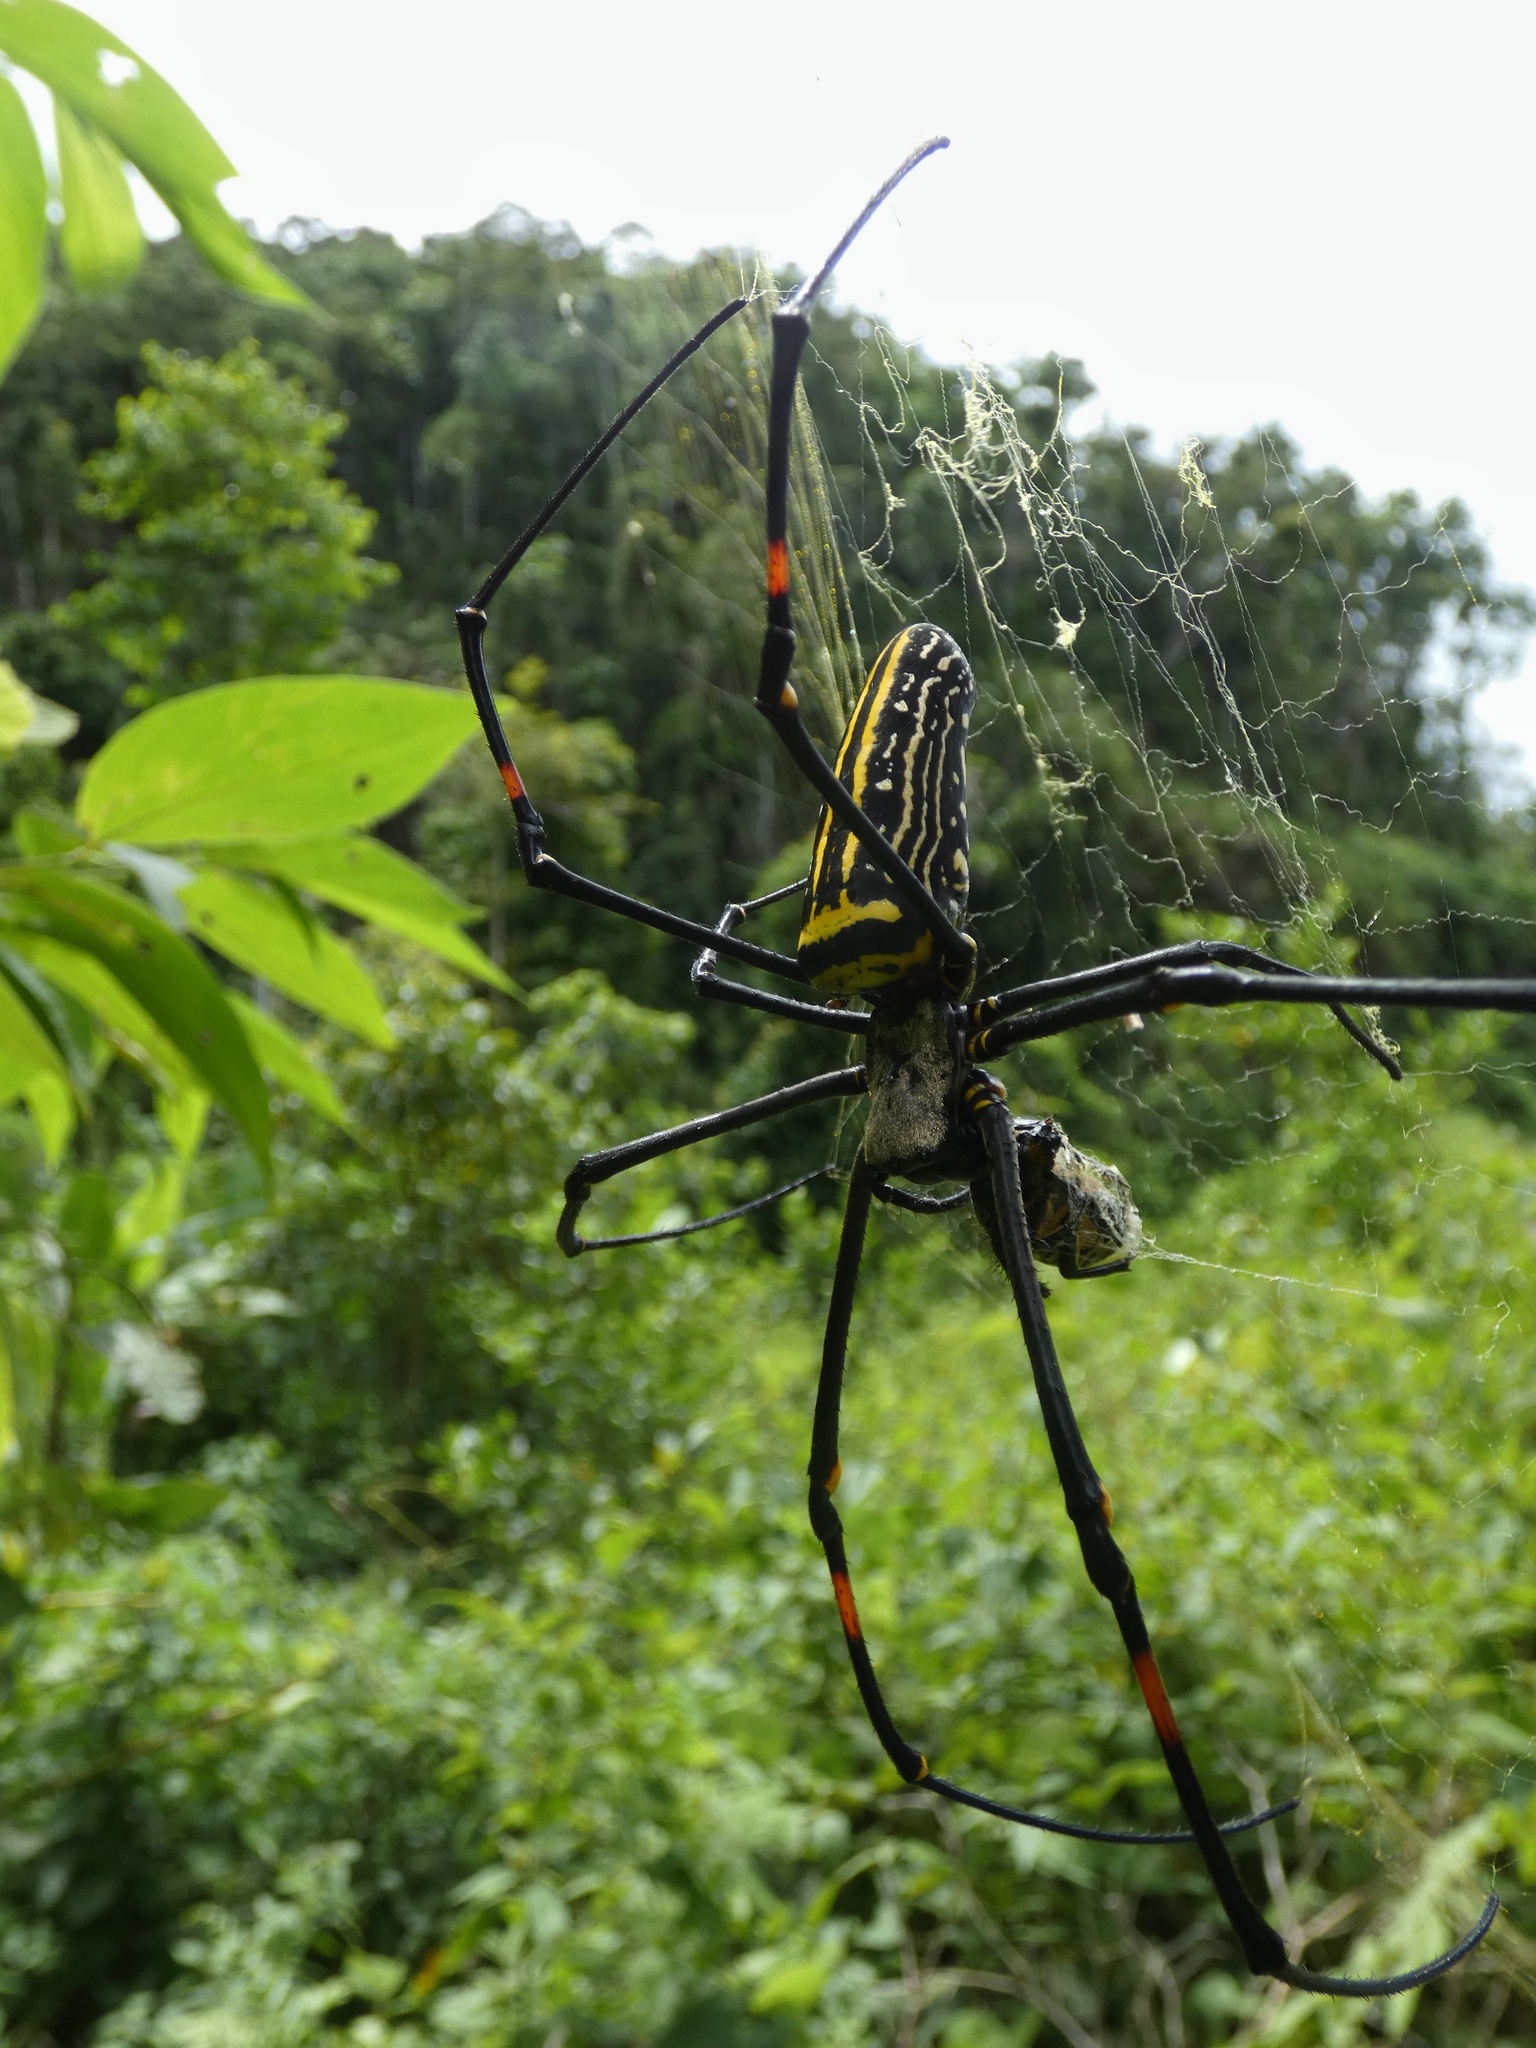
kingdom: Animalia
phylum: Arthropoda
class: Arachnida
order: Araneae
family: Araneidae
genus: Nephila
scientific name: Nephila pilipes
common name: Giant golden orb weaver
